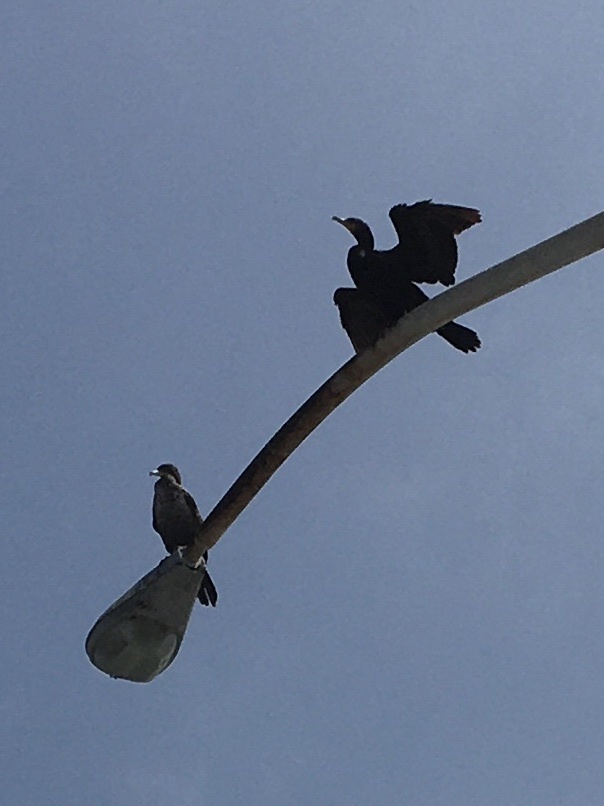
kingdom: Animalia
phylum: Chordata
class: Aves
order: Suliformes
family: Phalacrocoracidae
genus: Phalacrocorax
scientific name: Phalacrocorax auritus
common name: Double-crested cormorant
